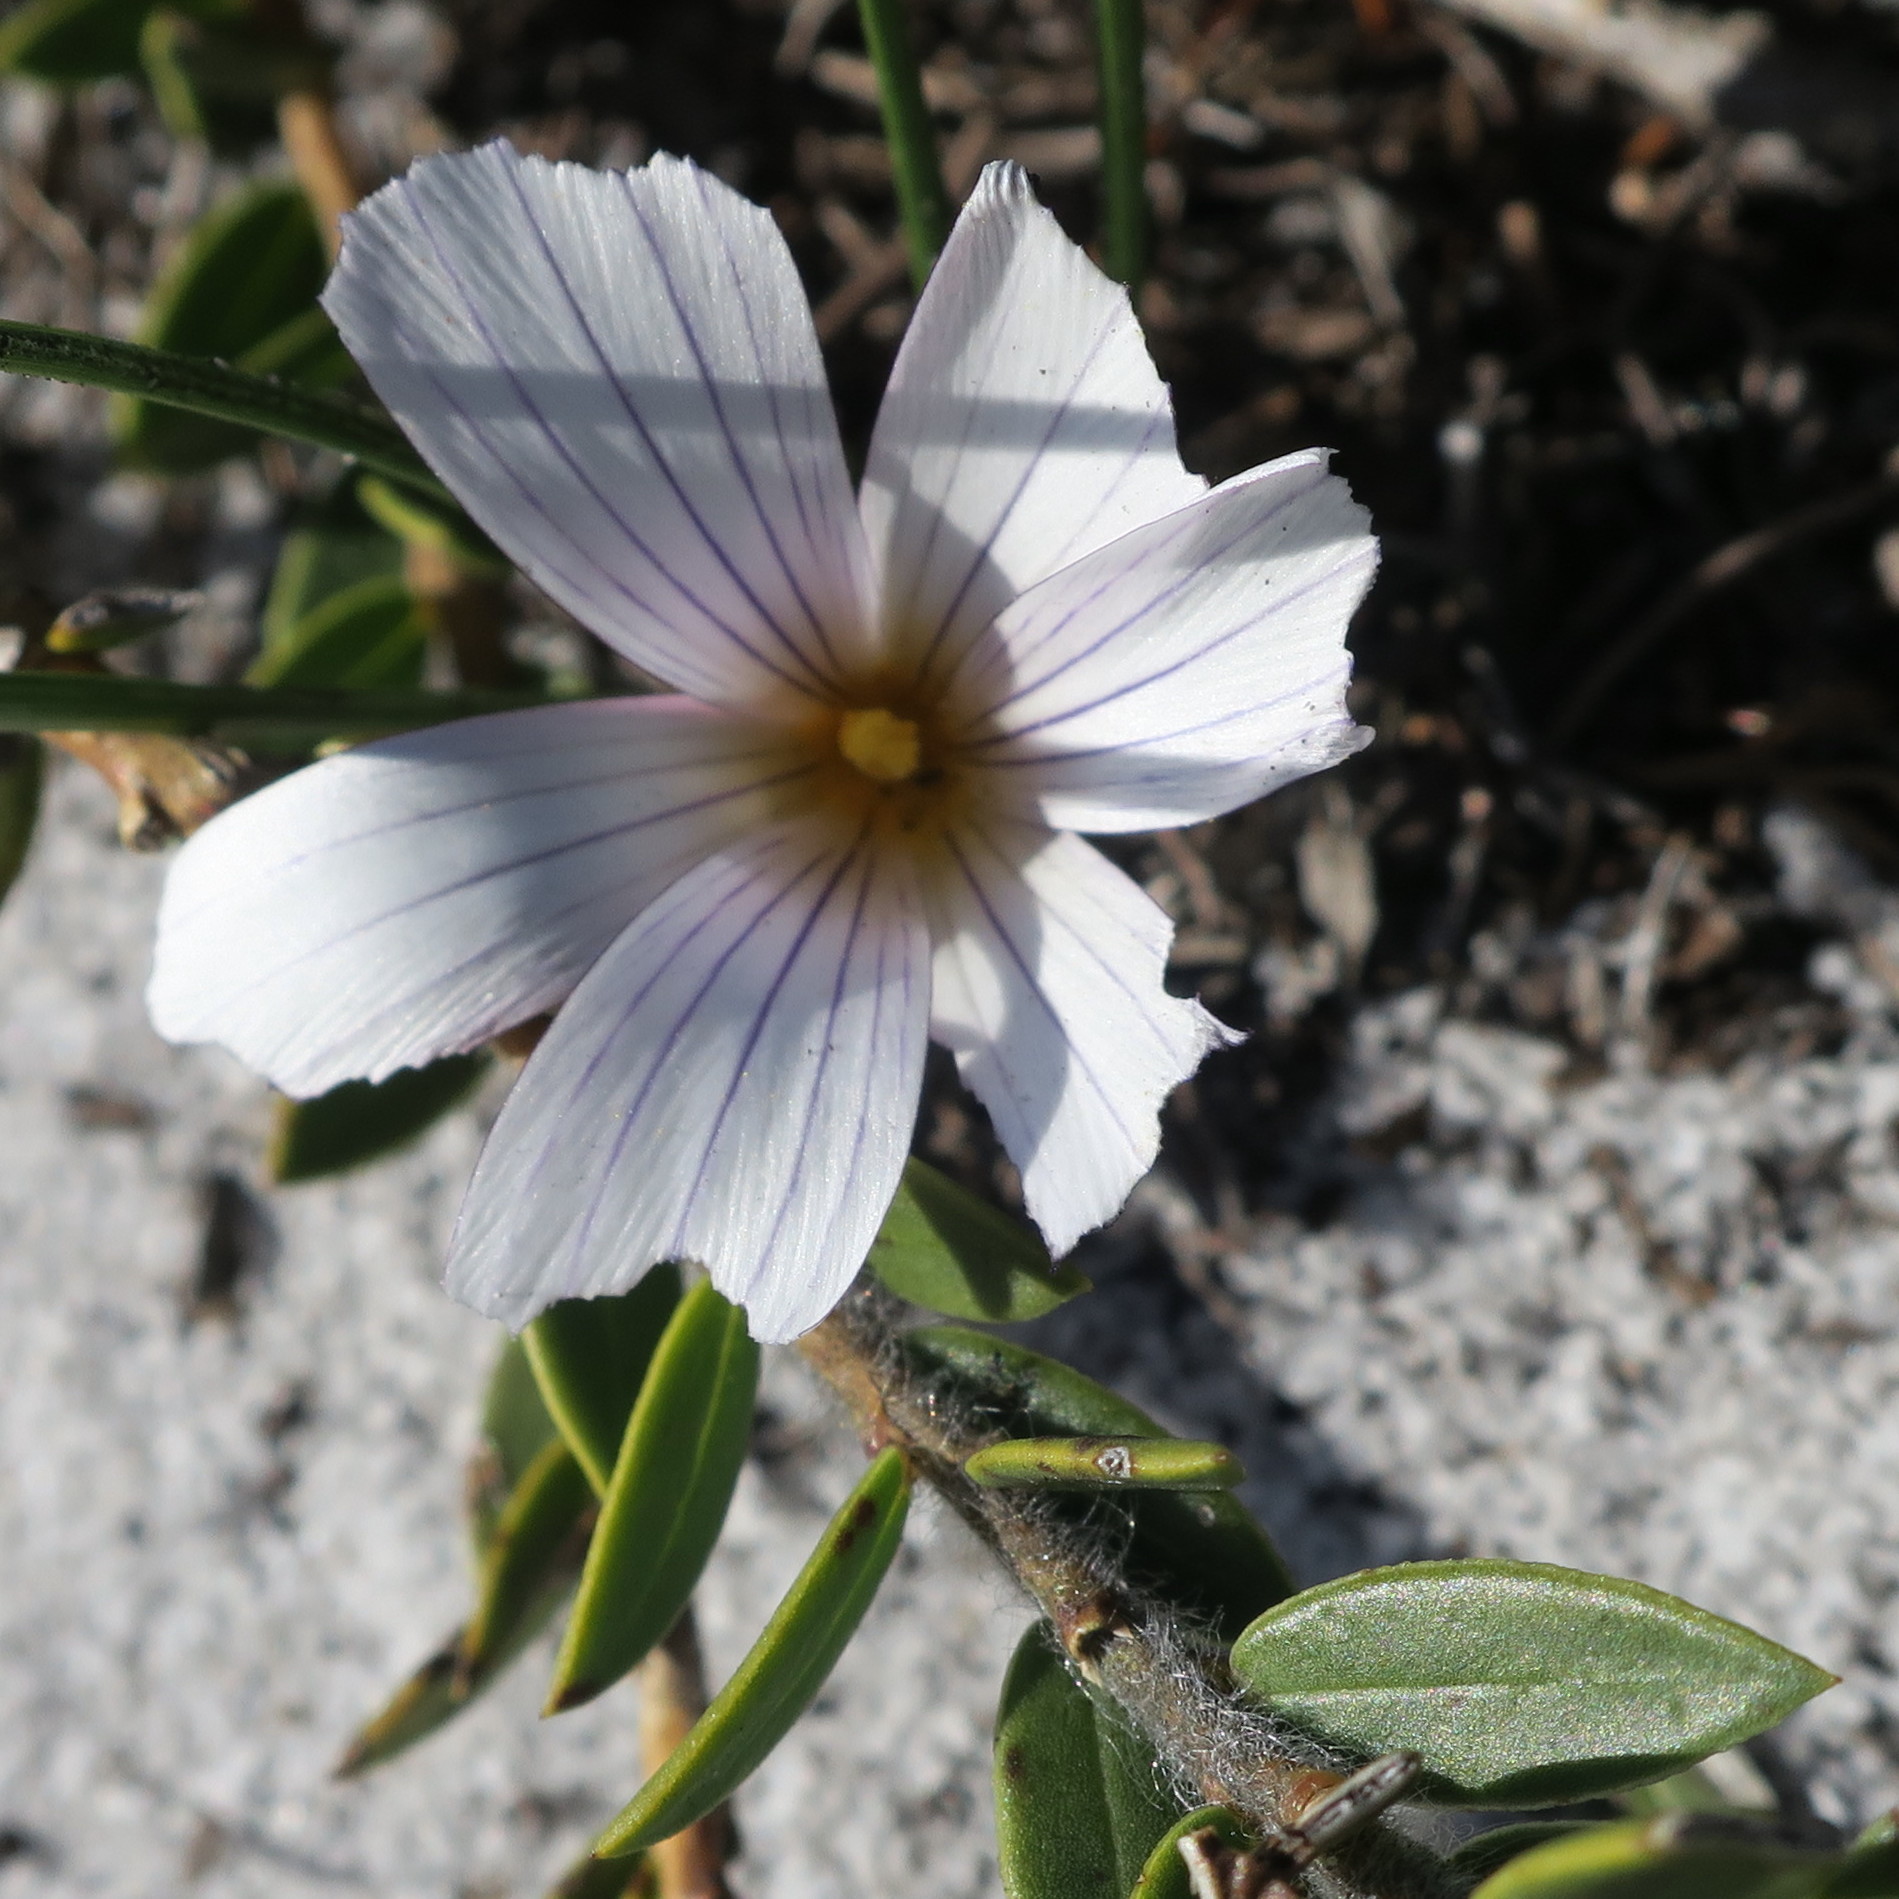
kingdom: Plantae
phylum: Tracheophyta
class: Liliopsida
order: Asparagales
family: Iridaceae
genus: Romulea
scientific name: Romulea flava
